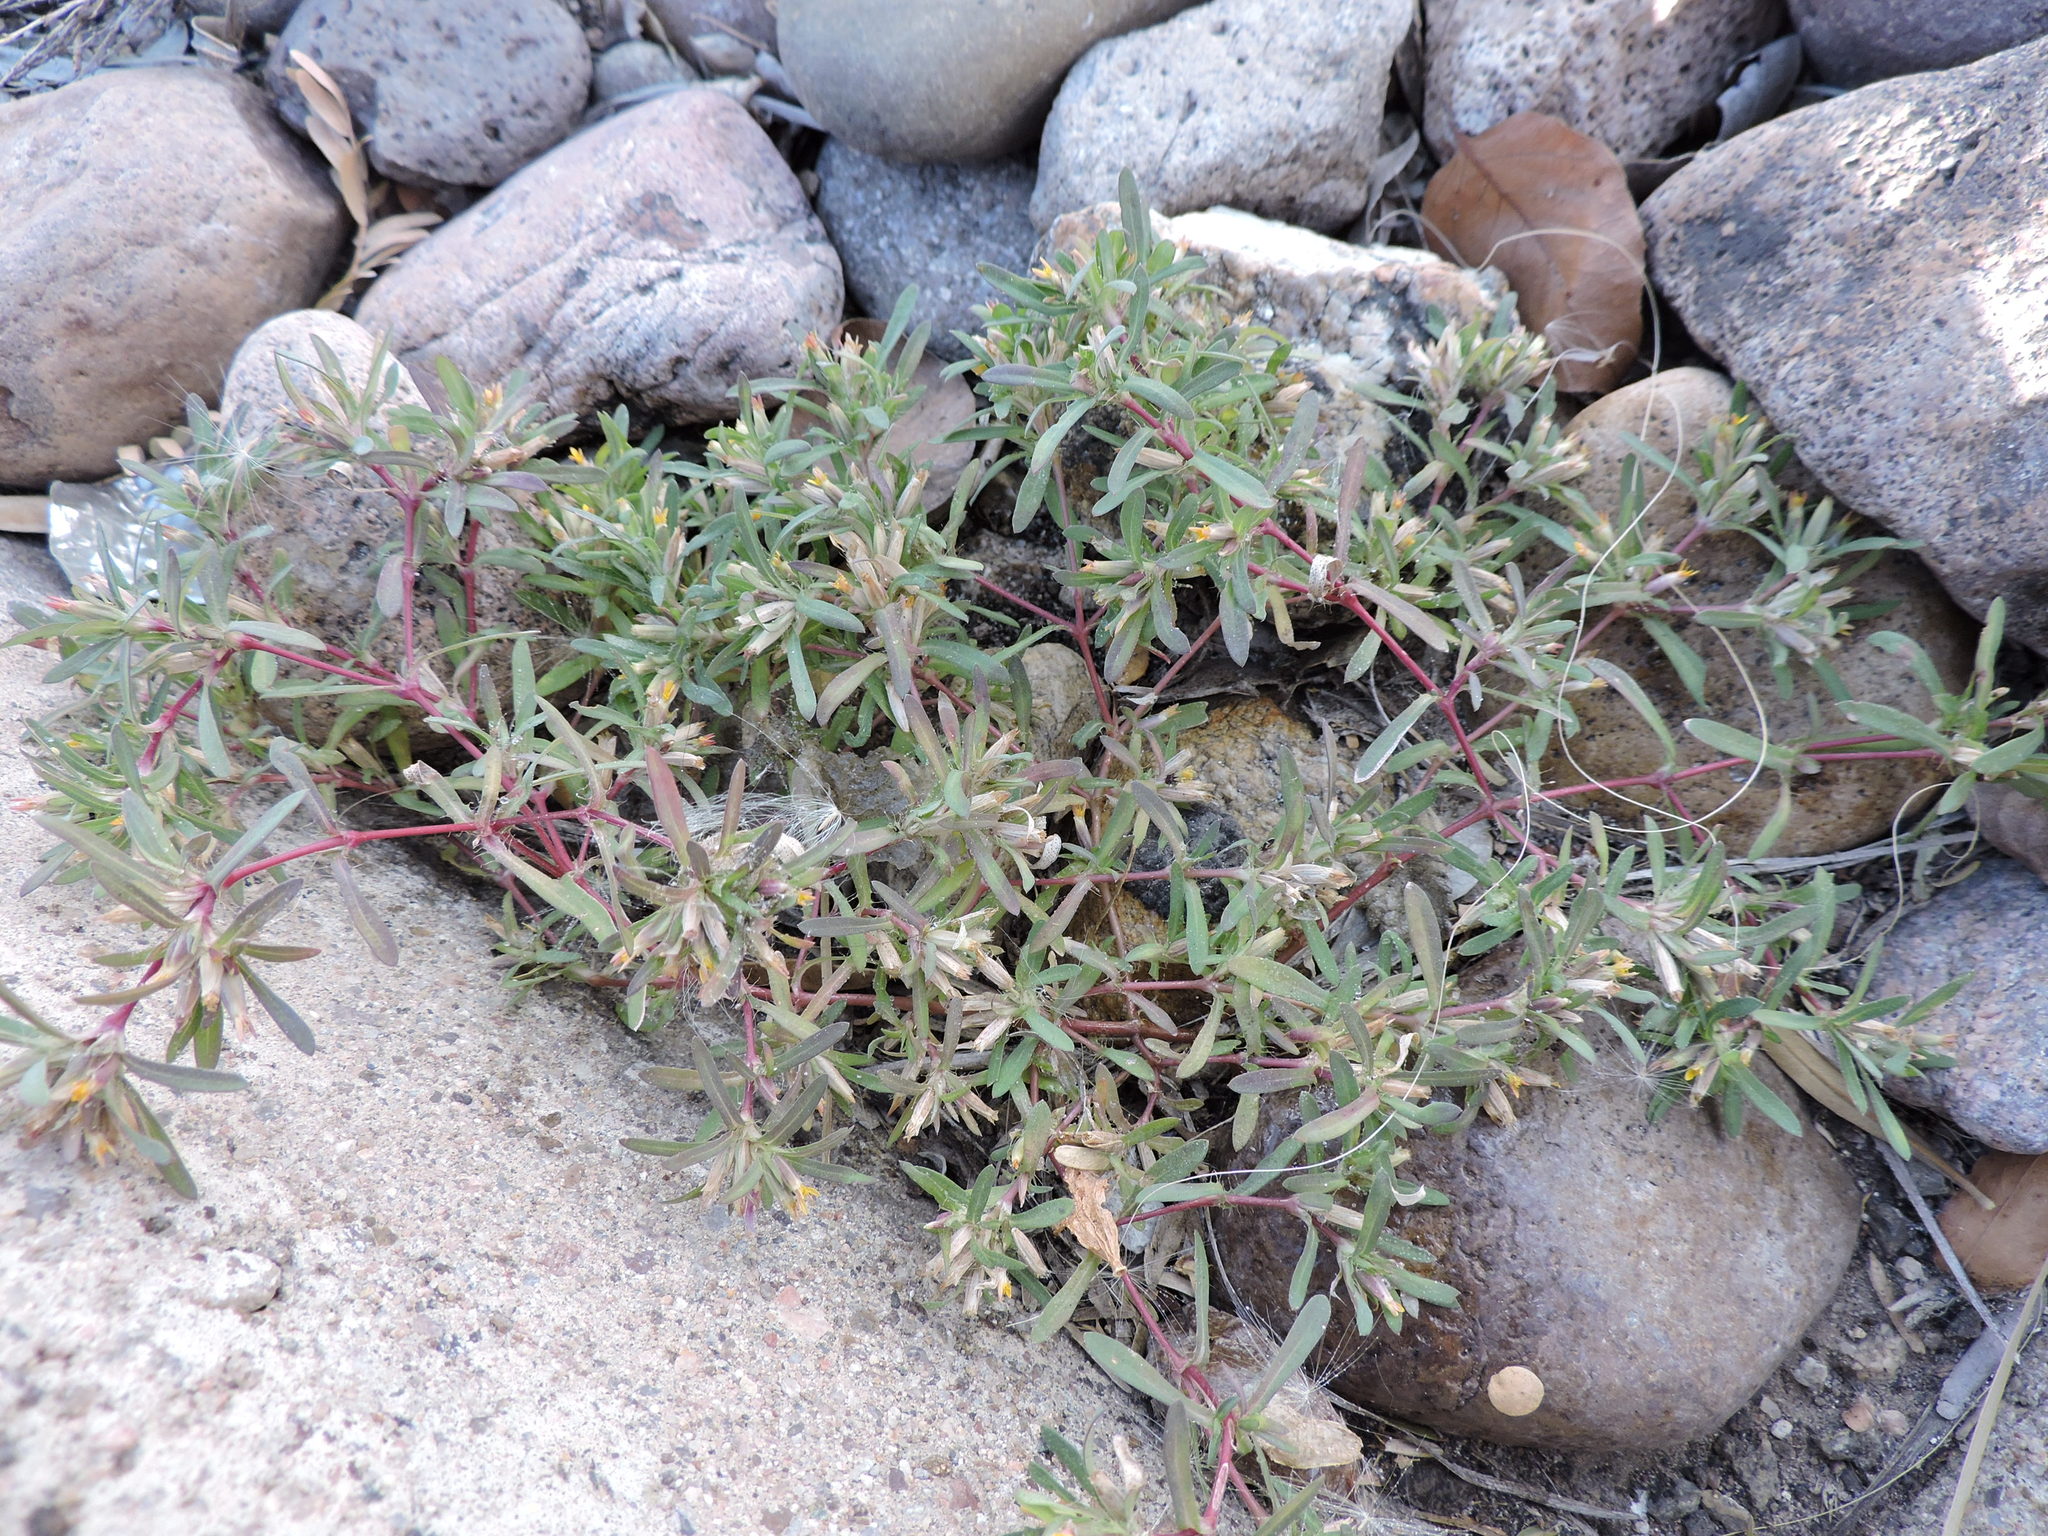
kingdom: Plantae
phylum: Tracheophyta
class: Magnoliopsida
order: Asterales
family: Asteraceae
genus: Pectis
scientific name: Pectis cylindrica
